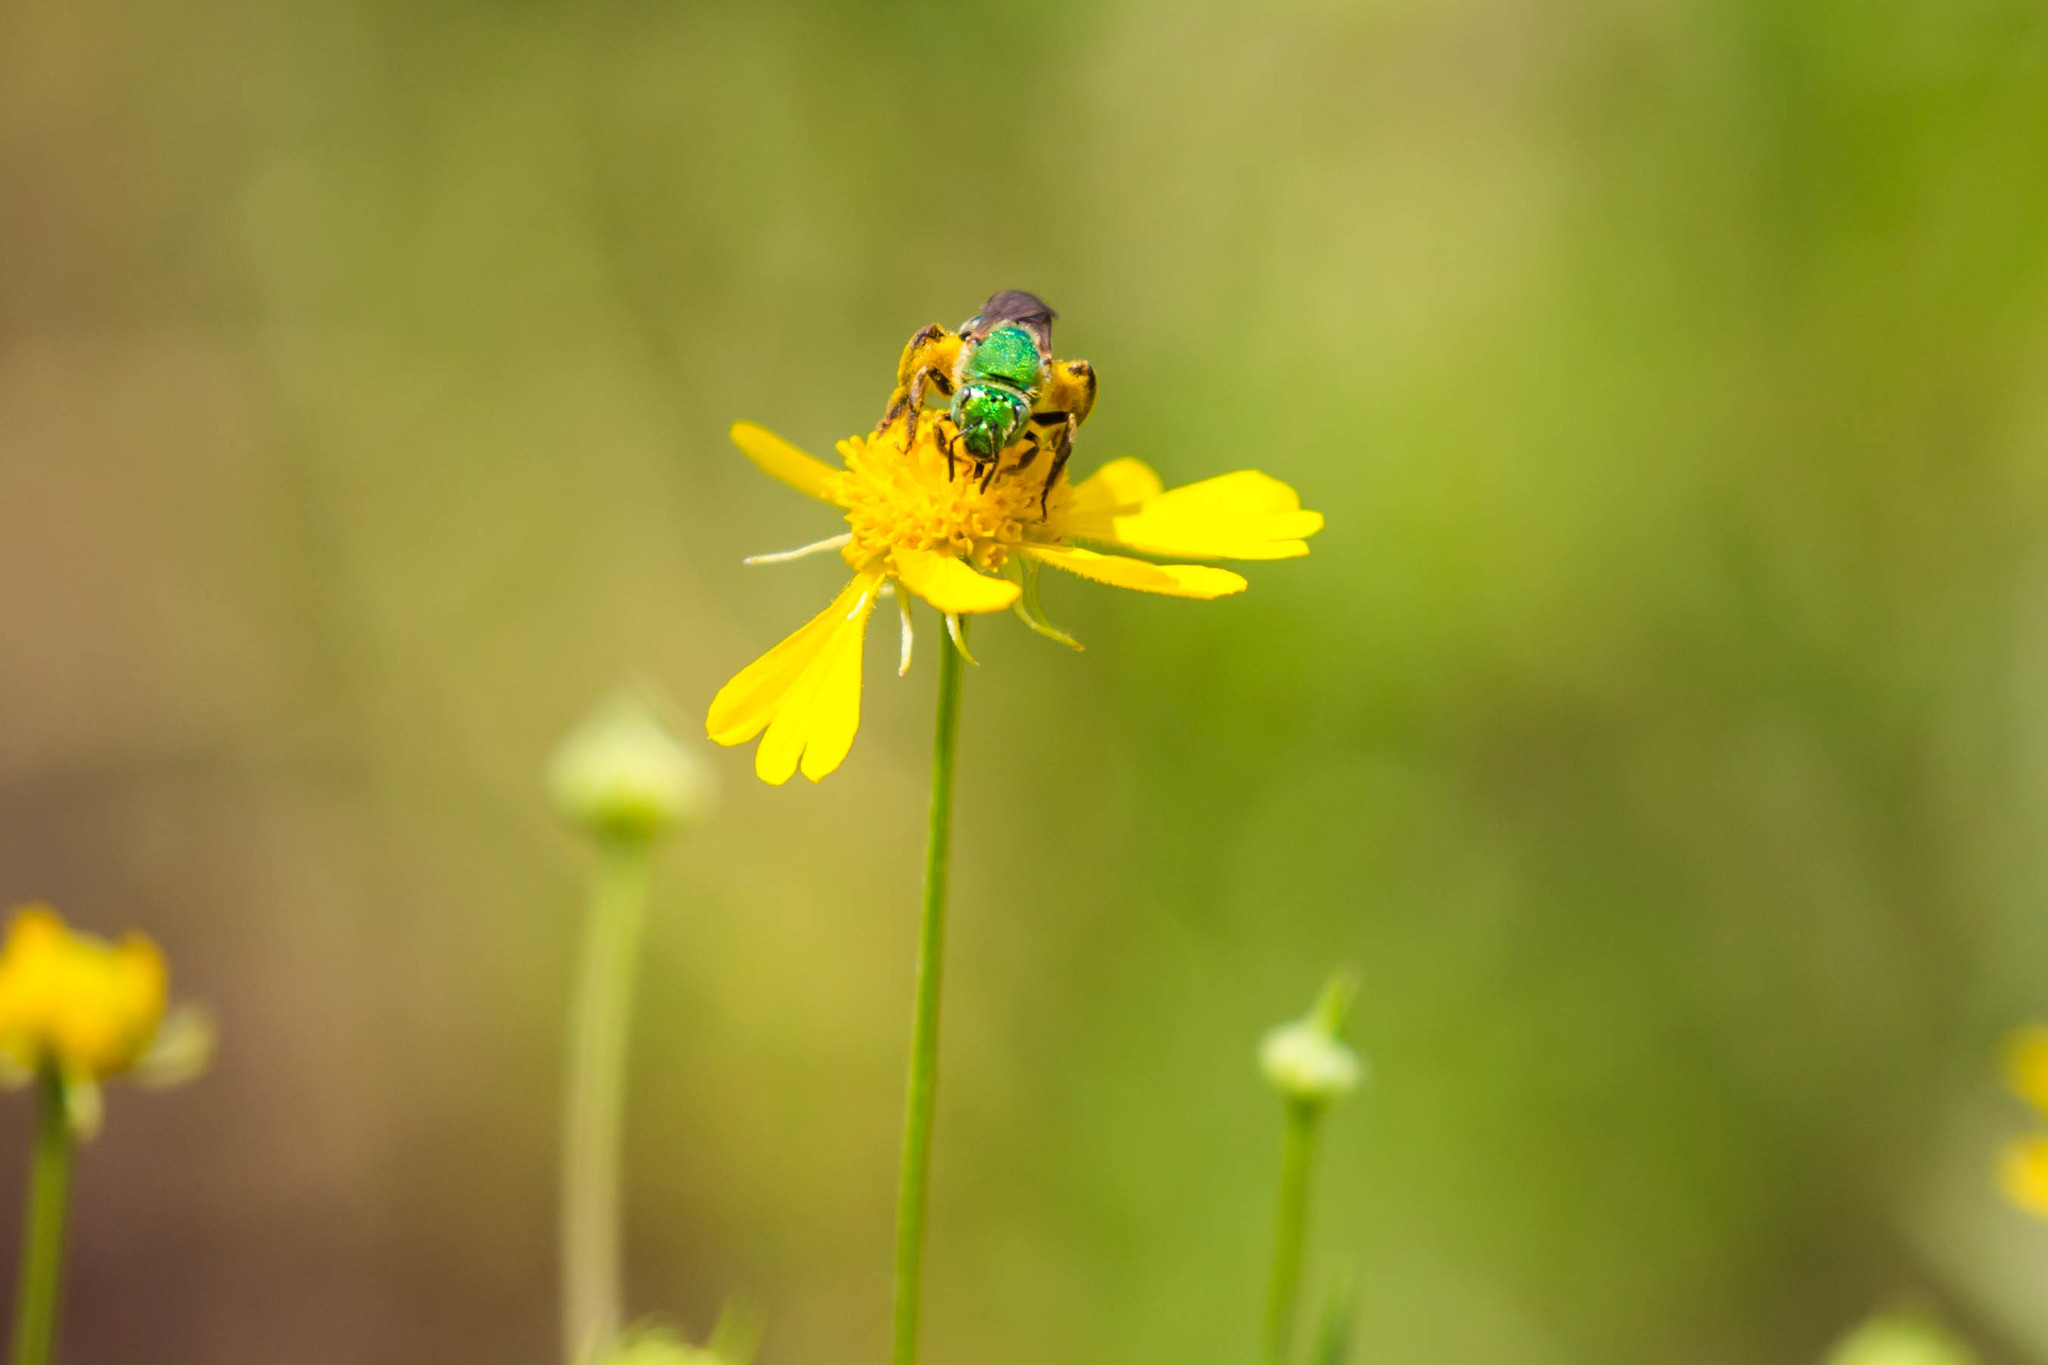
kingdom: Animalia
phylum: Arthropoda
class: Insecta
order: Hymenoptera
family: Halictidae
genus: Agapostemon
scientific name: Agapostemon splendens
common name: Brown-winged striped sweat bee
